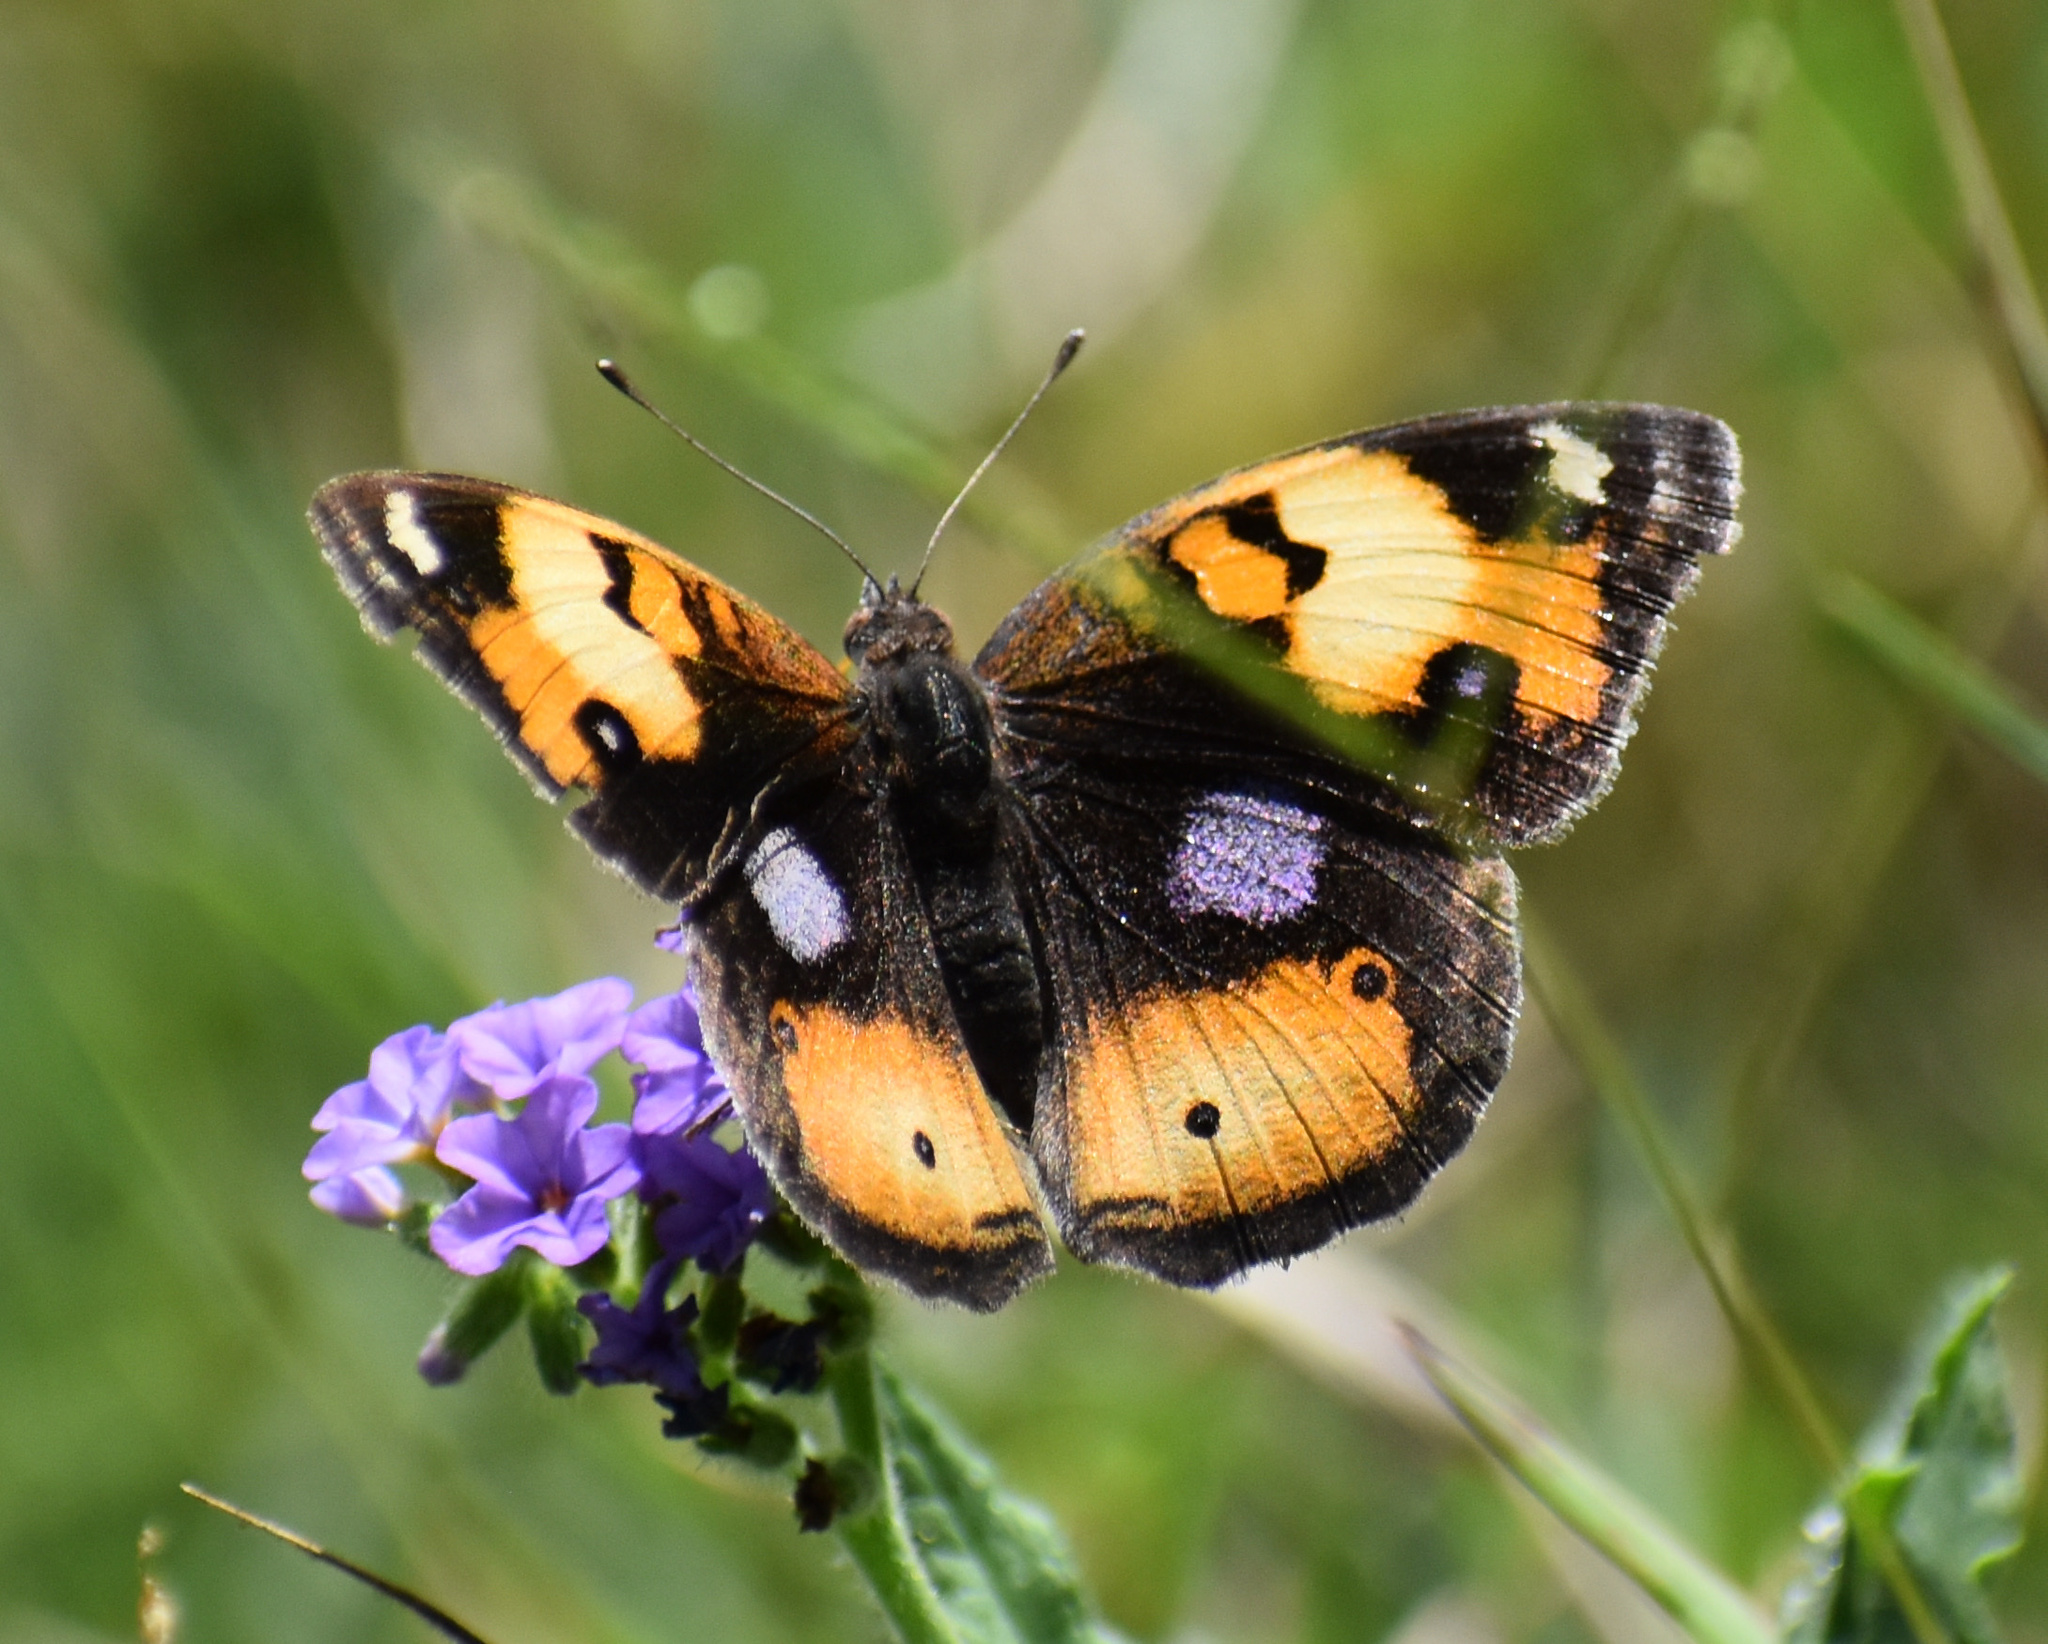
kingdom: Animalia
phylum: Arthropoda
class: Insecta
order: Lepidoptera
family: Nymphalidae
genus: Junonia
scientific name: Junonia hierta
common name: Yellow pansy
